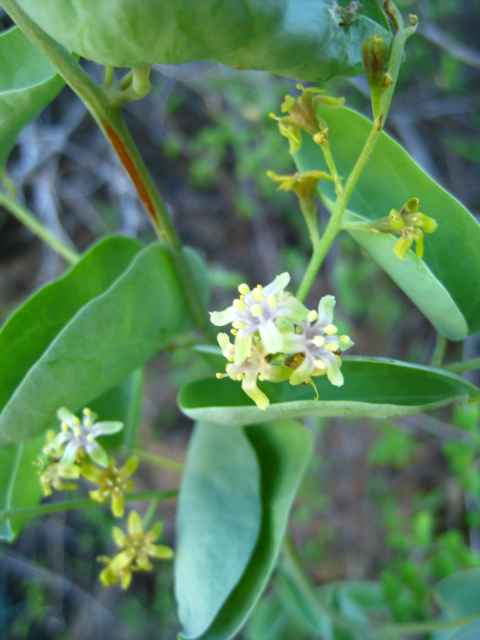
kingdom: Plantae
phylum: Tracheophyta
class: Liliopsida
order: Dioscoreales
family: Dioscoreaceae
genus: Dioscorea
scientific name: Dioscorea elephantipes
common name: Elephant's foot yam
